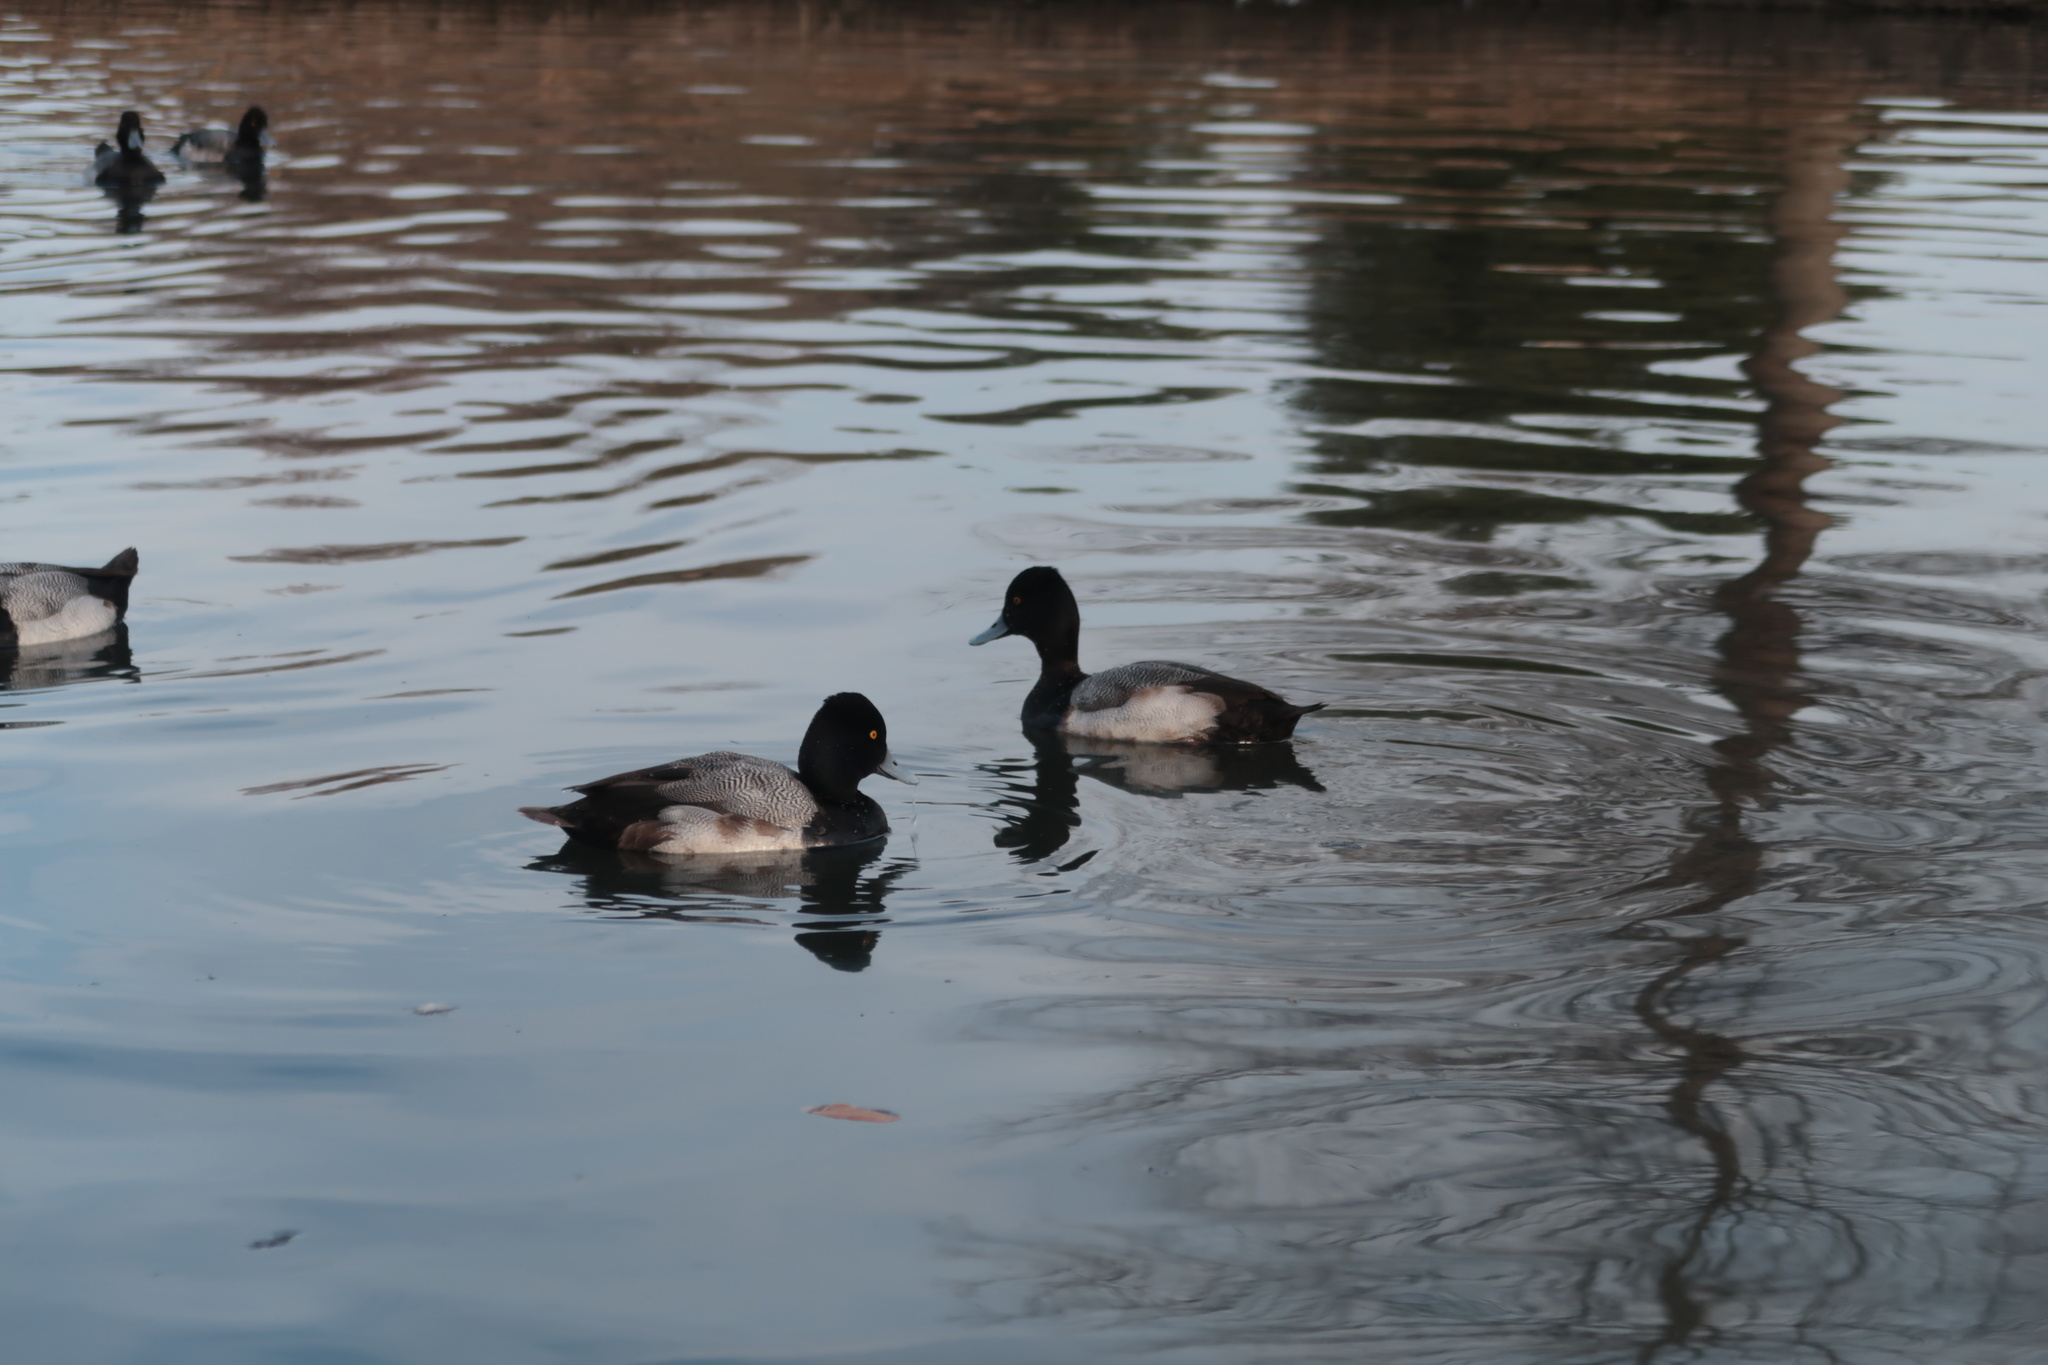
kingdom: Animalia
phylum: Chordata
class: Aves
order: Anseriformes
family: Anatidae
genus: Aythya
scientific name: Aythya affinis
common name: Lesser scaup
